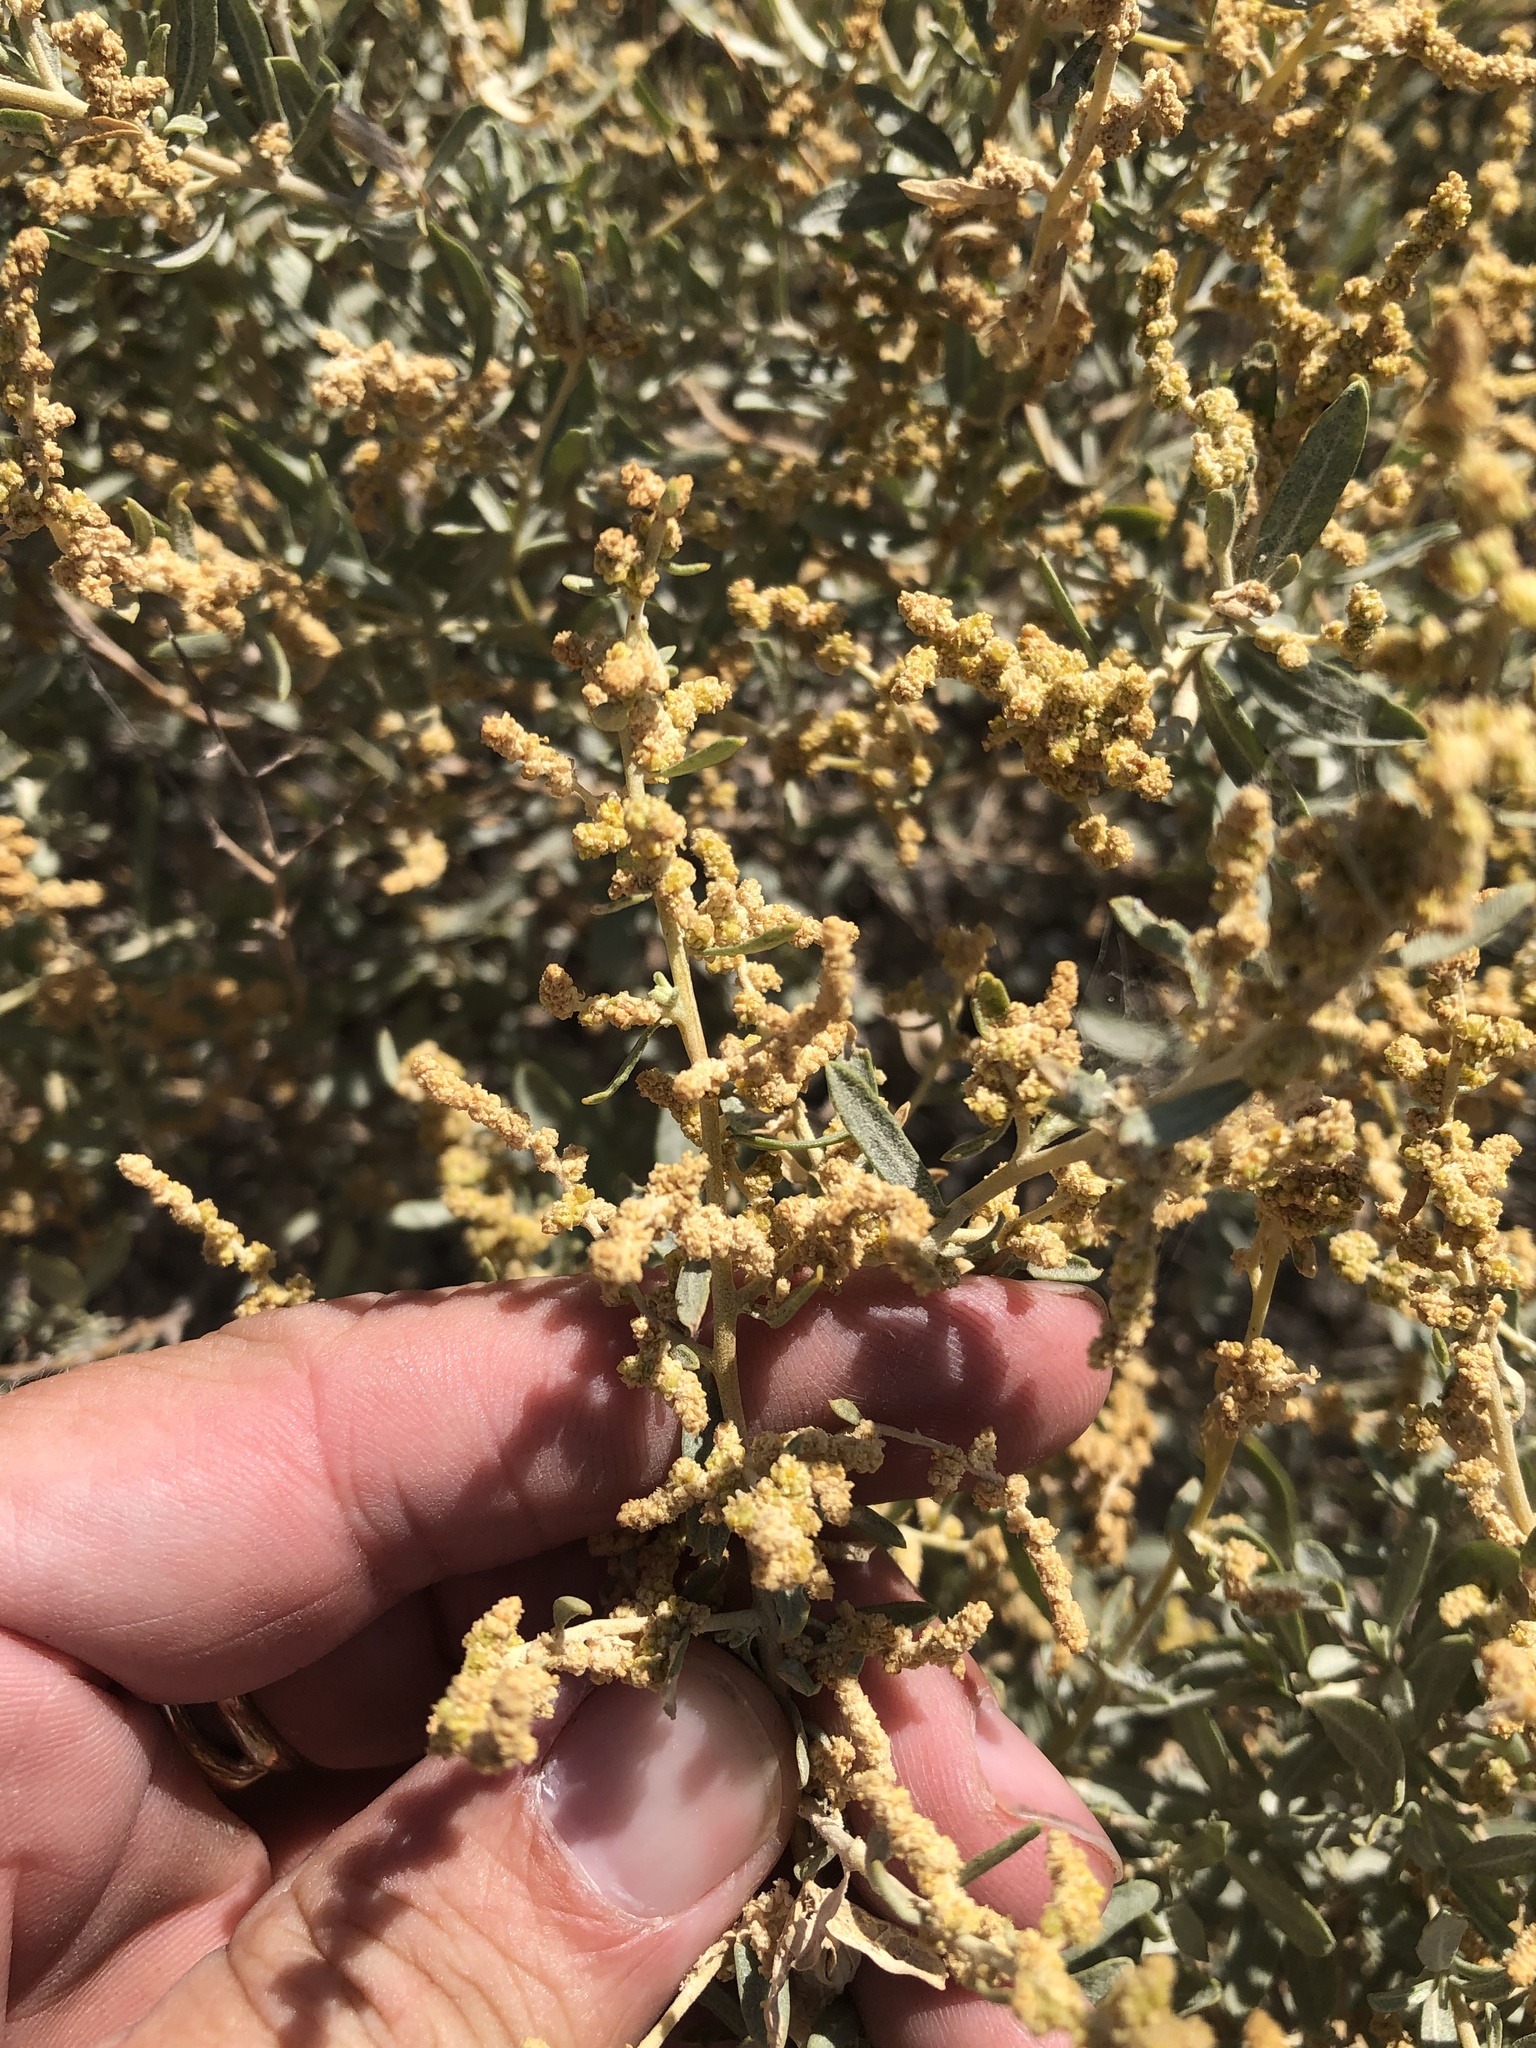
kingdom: Plantae
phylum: Tracheophyta
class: Magnoliopsida
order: Caryophyllales
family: Amaranthaceae
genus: Atriplex
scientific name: Atriplex canescens
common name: Four-wing saltbush
